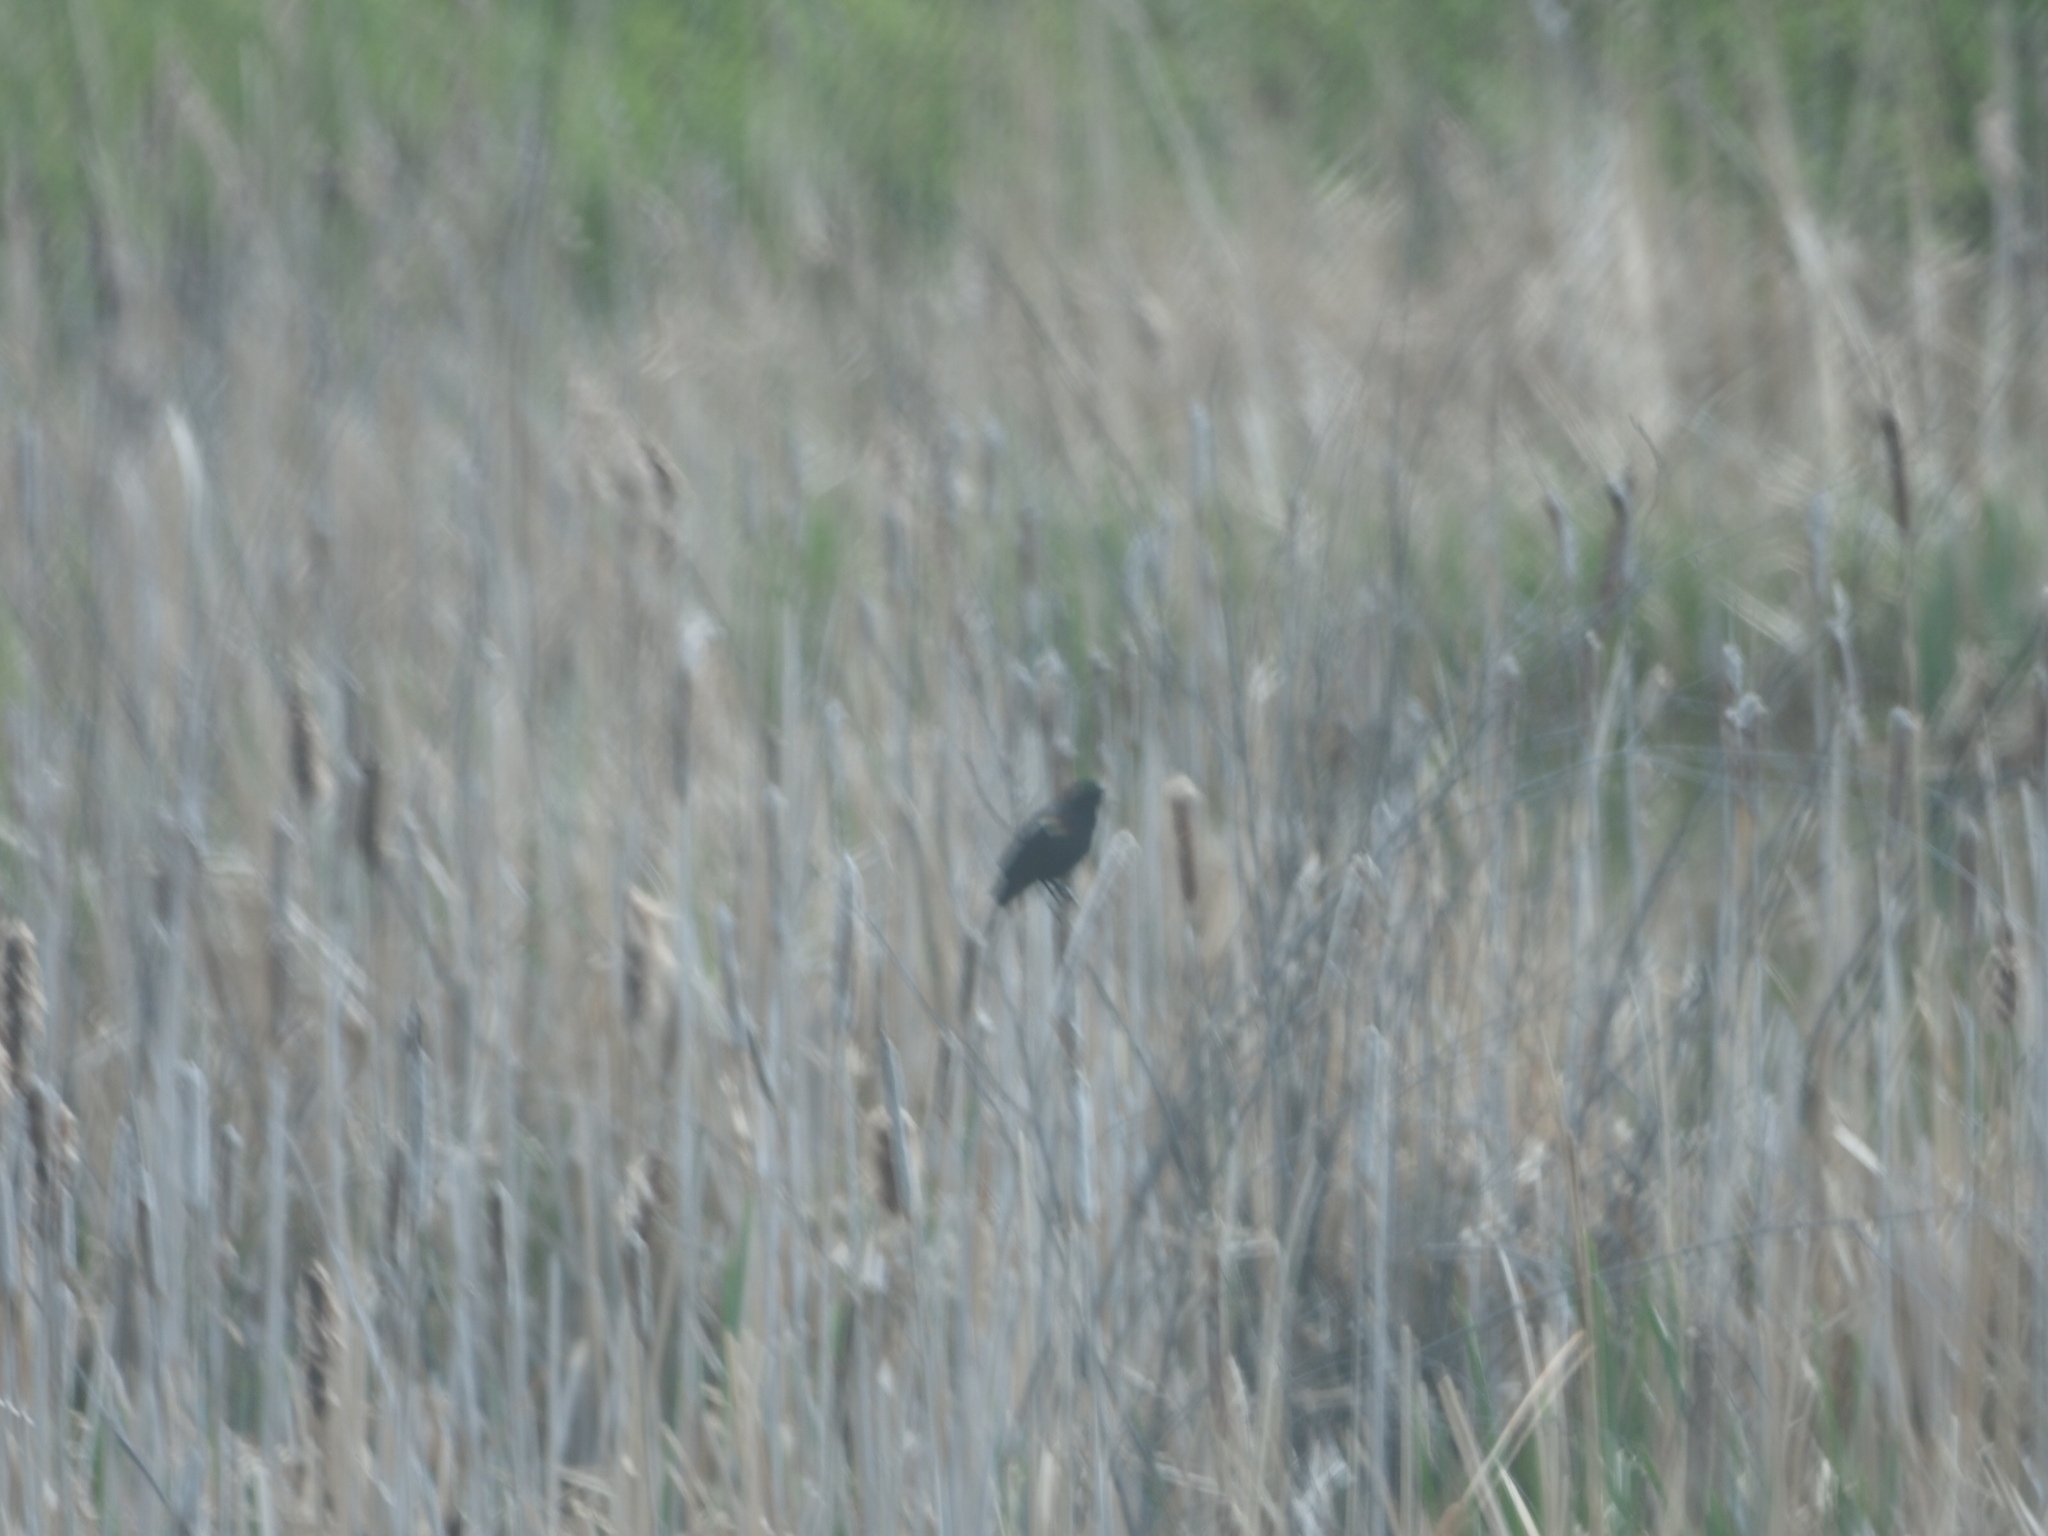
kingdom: Animalia
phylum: Chordata
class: Aves
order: Passeriformes
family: Icteridae
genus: Agelaius
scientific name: Agelaius phoeniceus
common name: Red-winged blackbird
